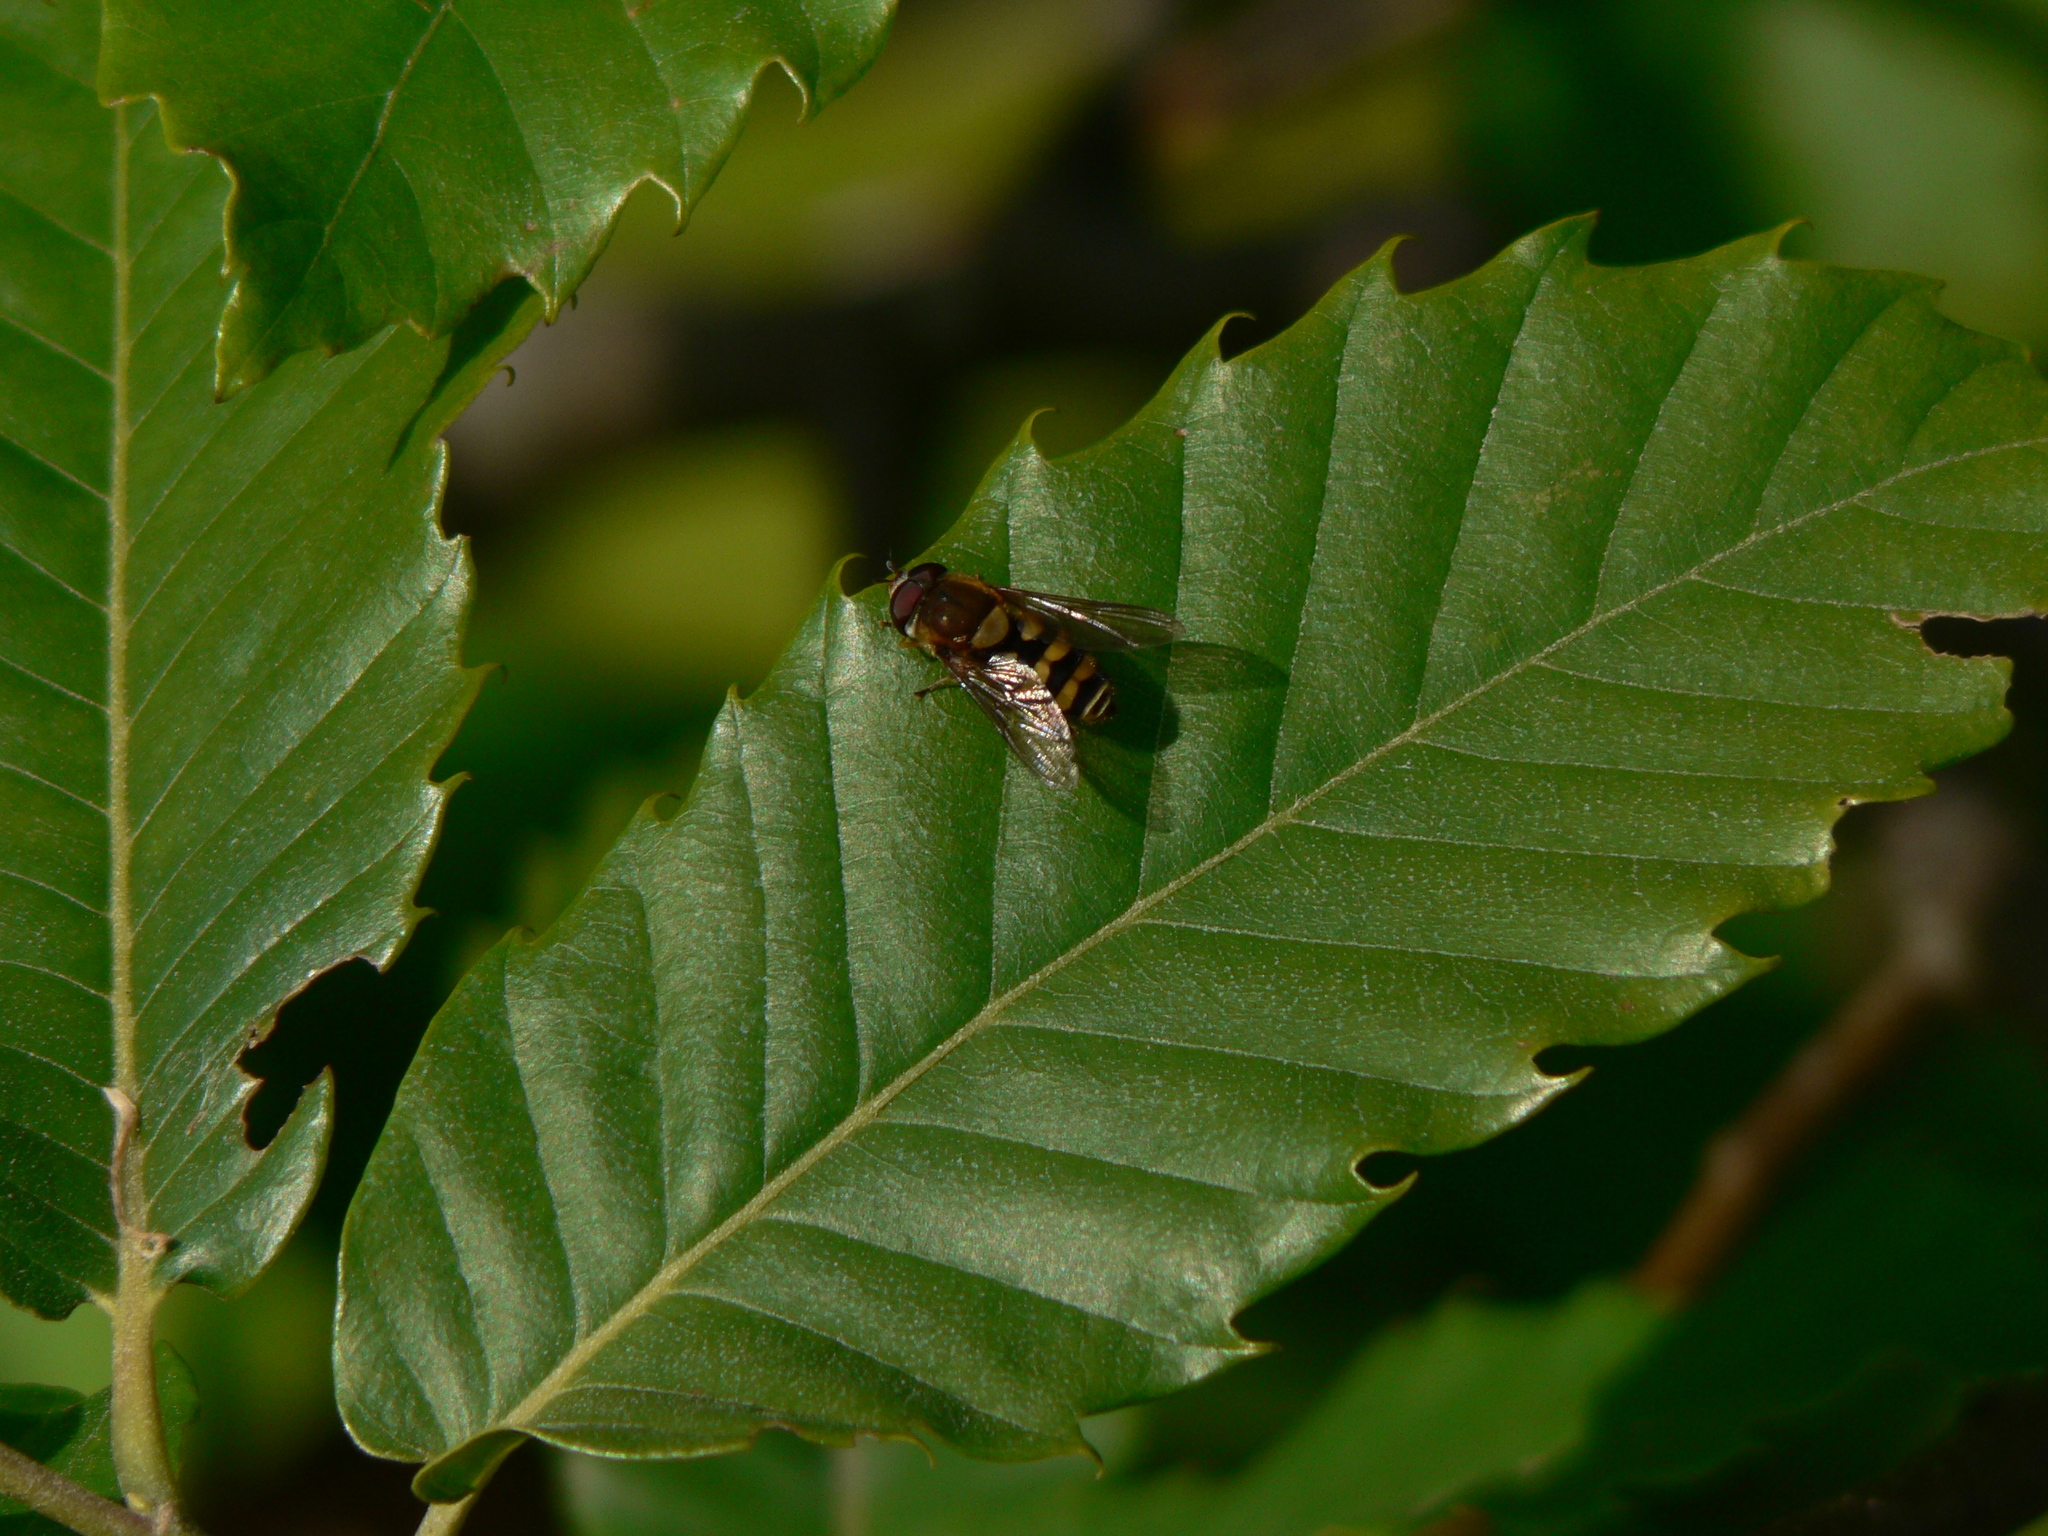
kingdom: Animalia
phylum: Arthropoda
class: Insecta
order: Diptera
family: Syrphidae
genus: Syrphus
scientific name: Syrphus
